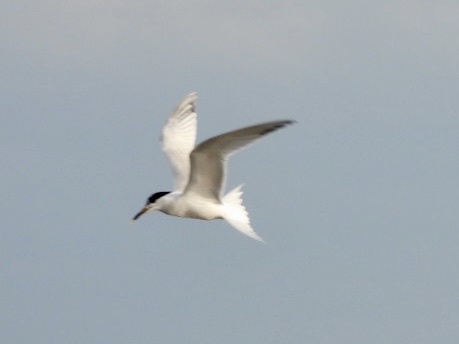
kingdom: Animalia
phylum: Chordata
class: Aves
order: Charadriiformes
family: Laridae
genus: Thalasseus
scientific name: Thalasseus sandvicensis
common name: Sandwich tern
